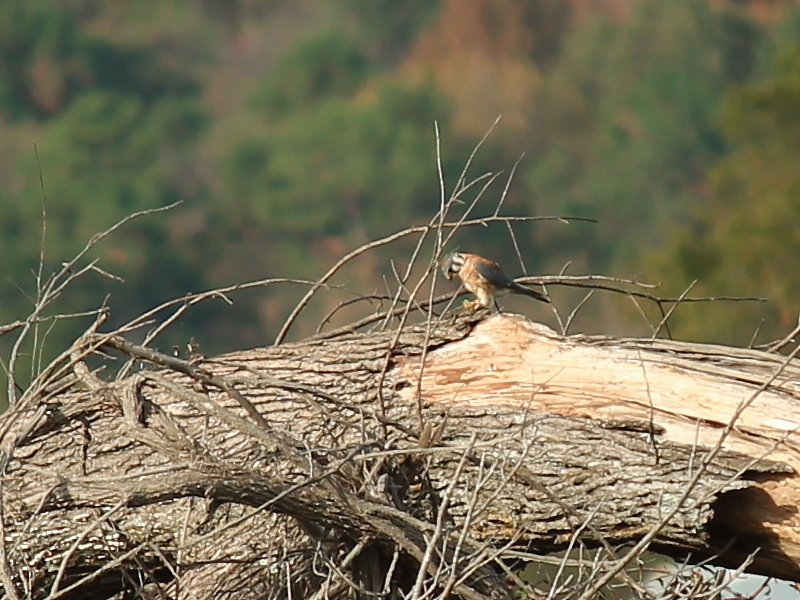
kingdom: Animalia
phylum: Chordata
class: Aves
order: Falconiformes
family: Falconidae
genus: Falco
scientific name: Falco sparverius
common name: American kestrel
